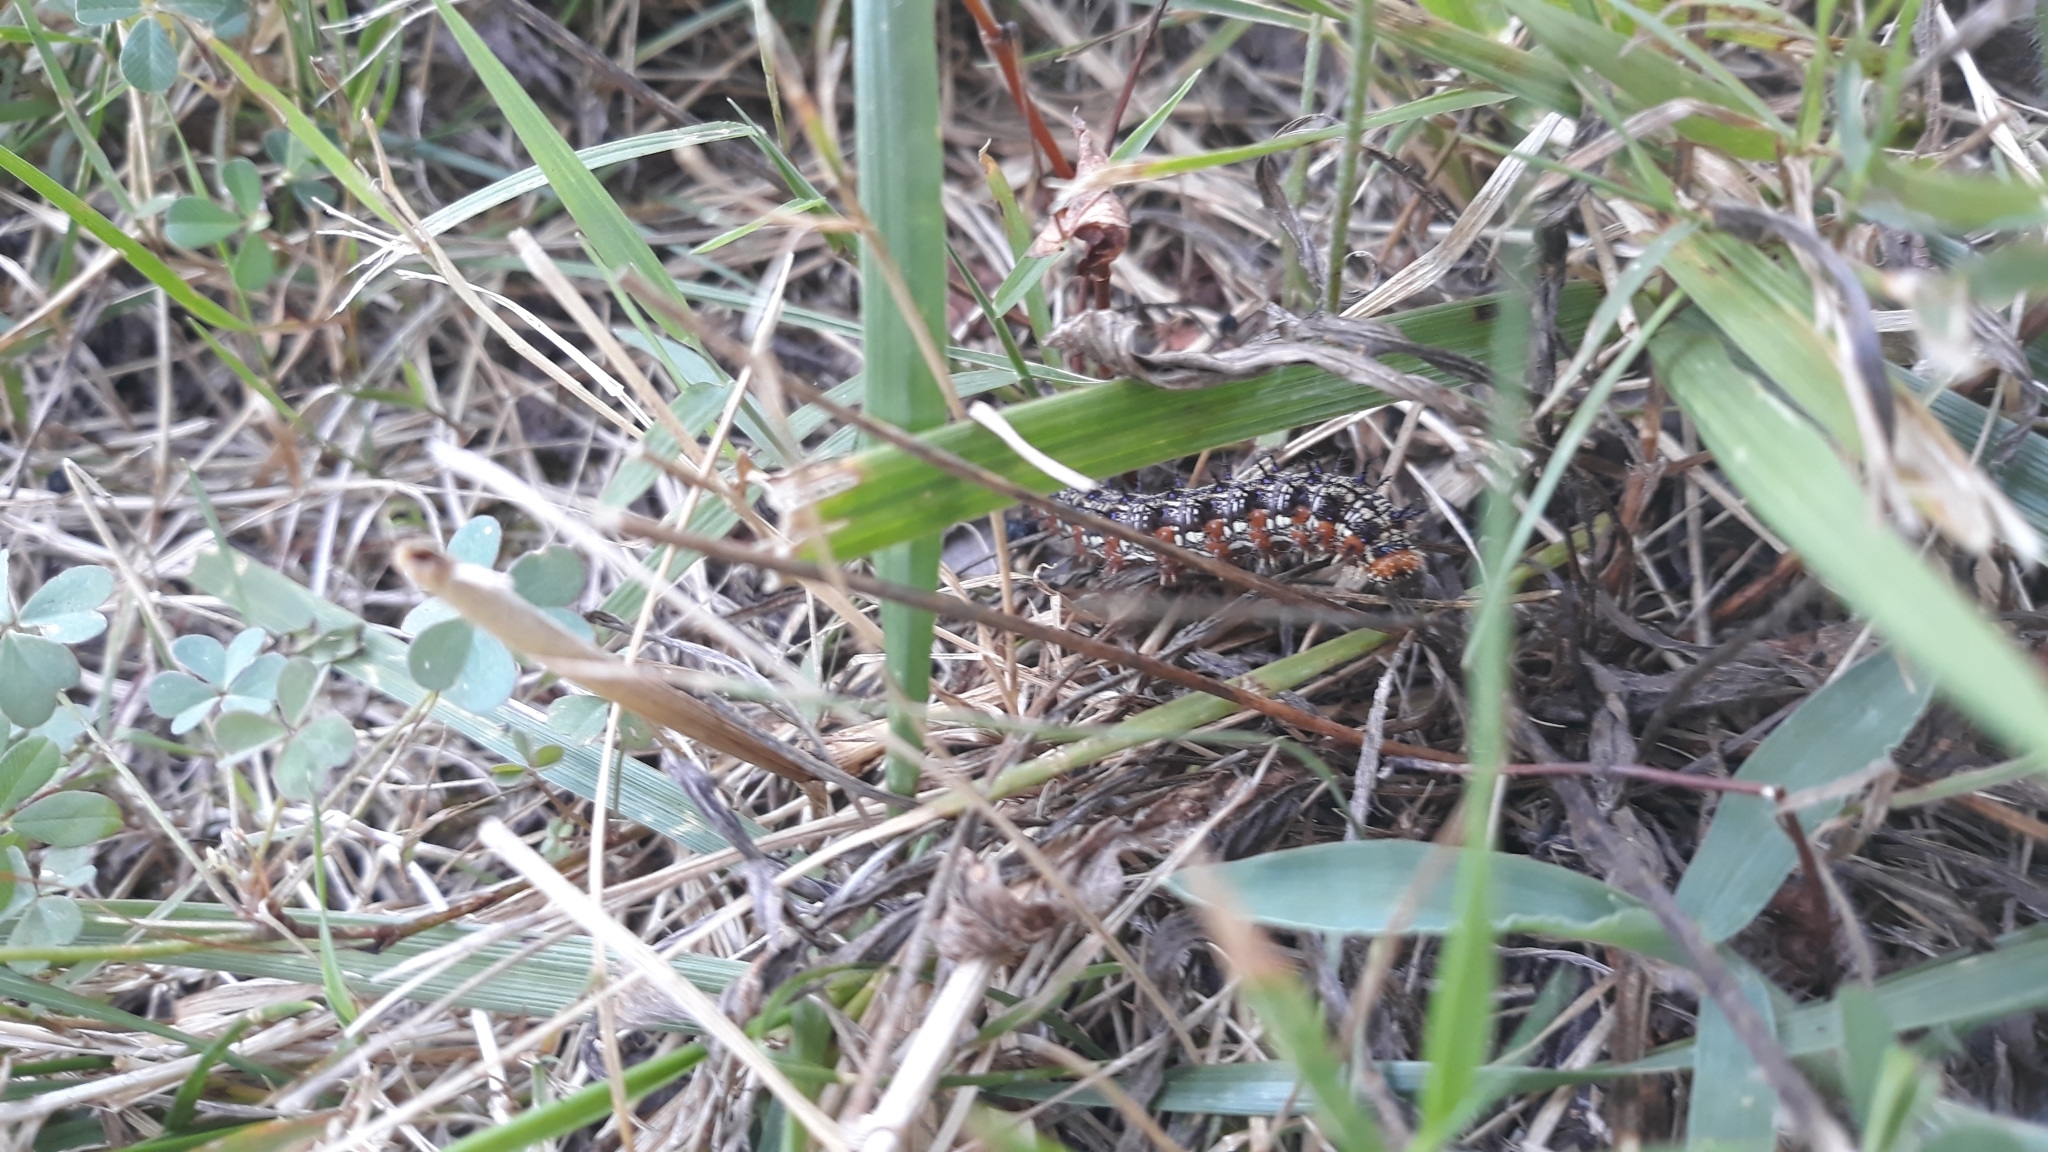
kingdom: Animalia
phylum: Arthropoda
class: Insecta
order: Lepidoptera
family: Nymphalidae
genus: Junonia
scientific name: Junonia coenia
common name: Common buckeye
